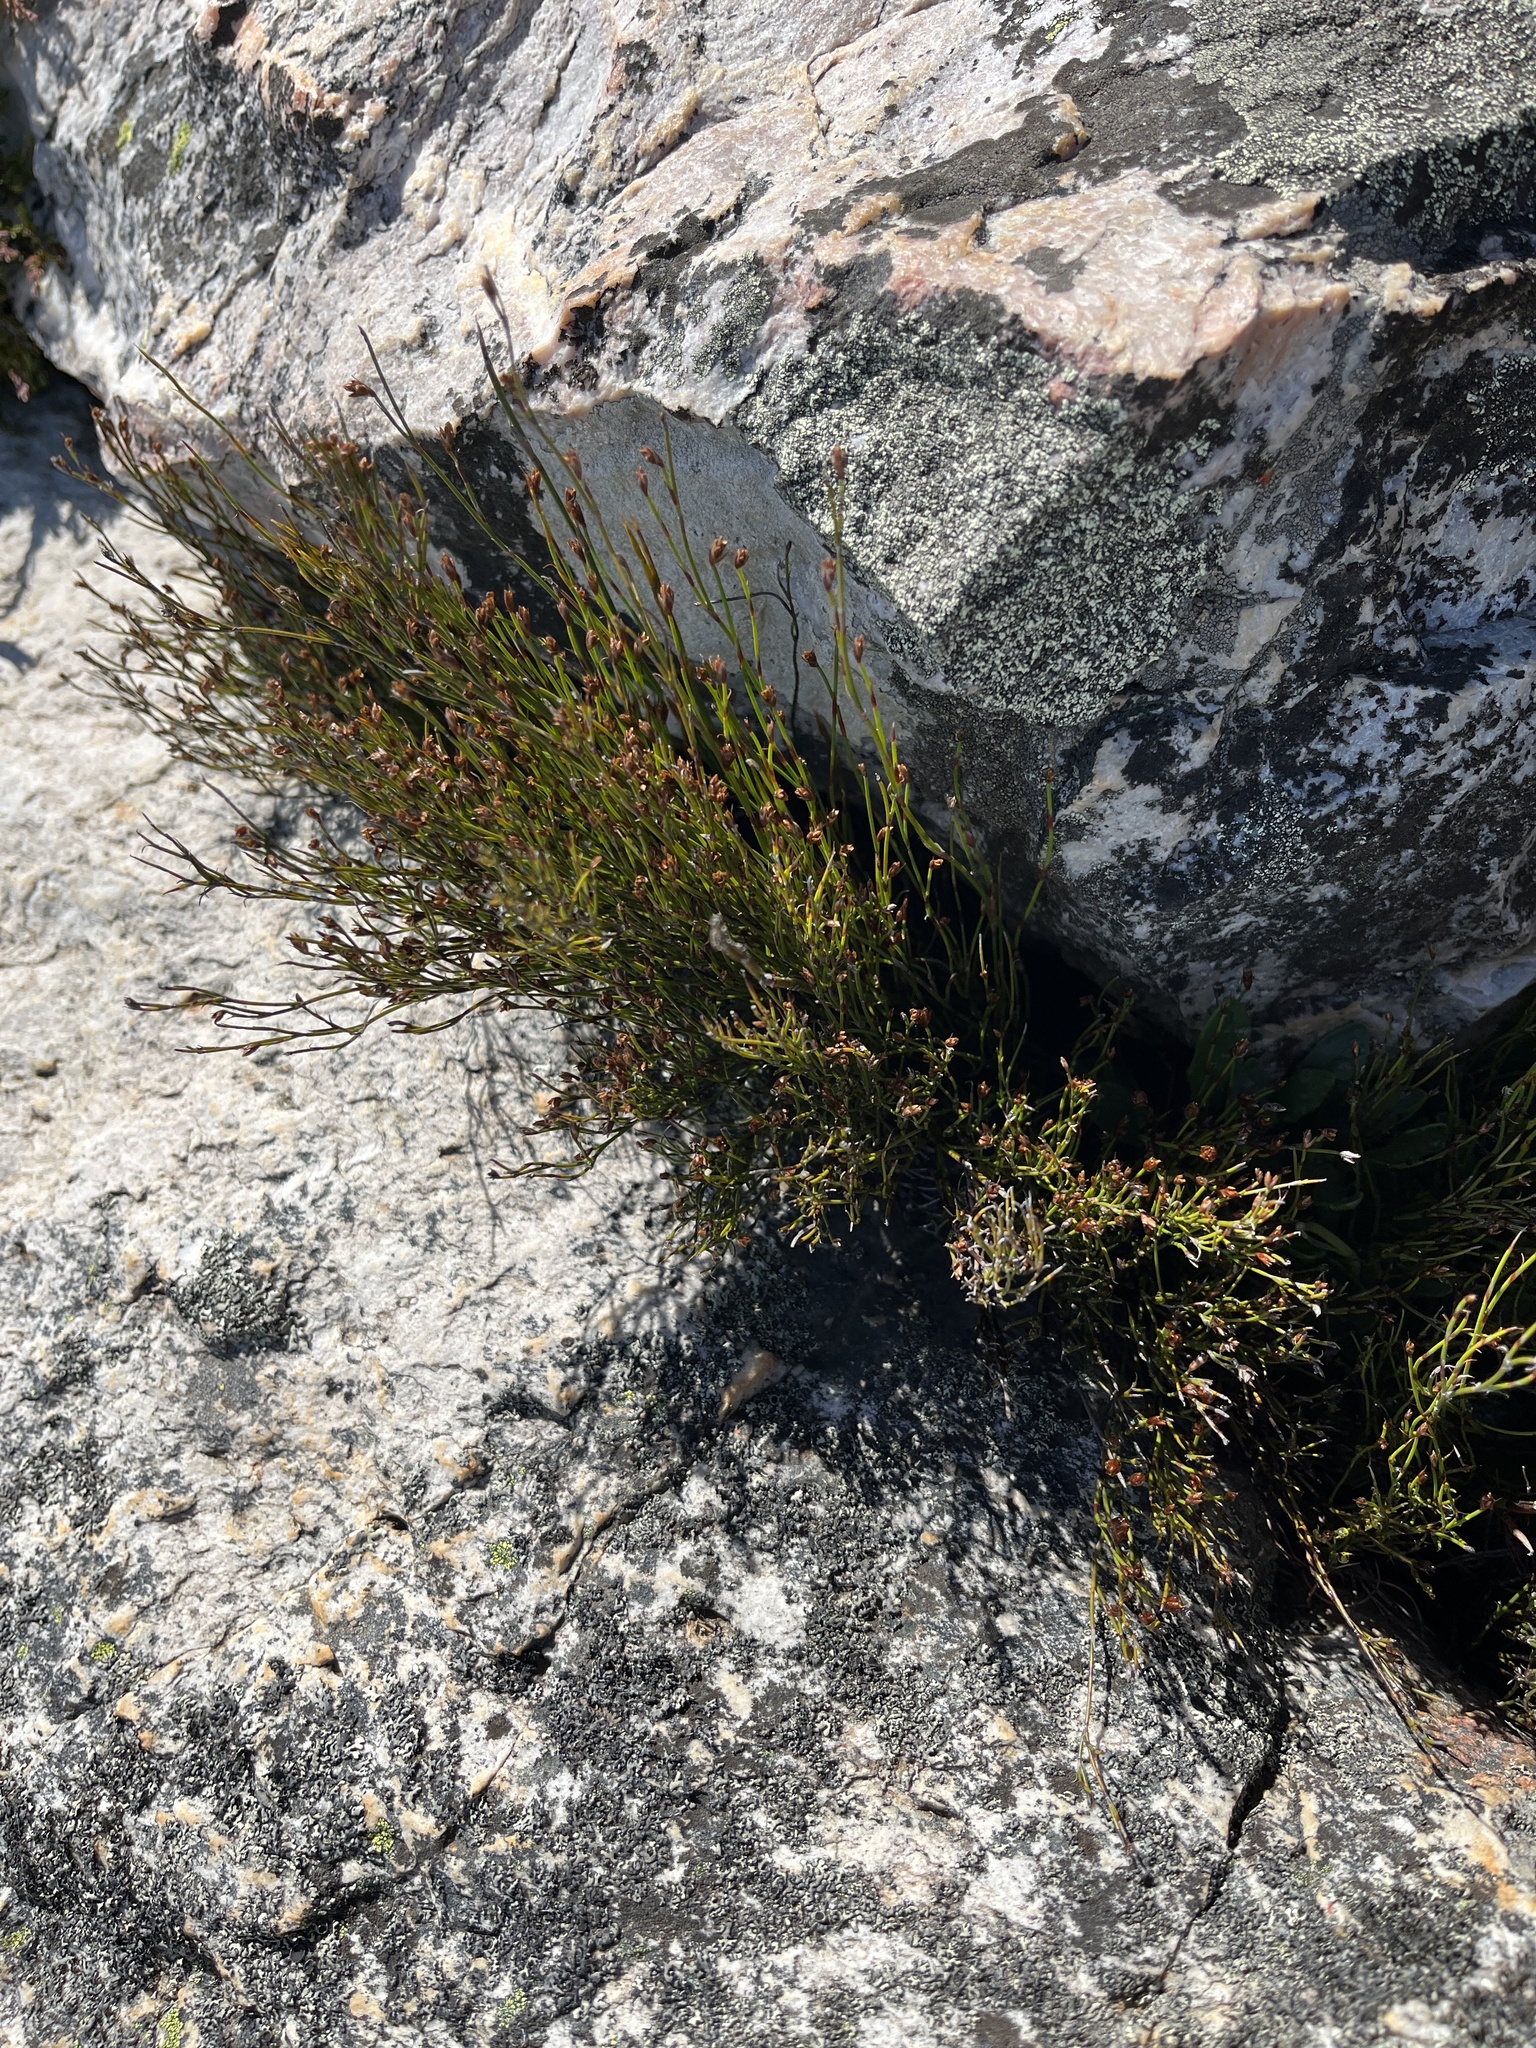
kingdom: Plantae
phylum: Tracheophyta
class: Liliopsida
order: Poales
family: Restionaceae
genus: Restio
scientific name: Restio sejunctus
